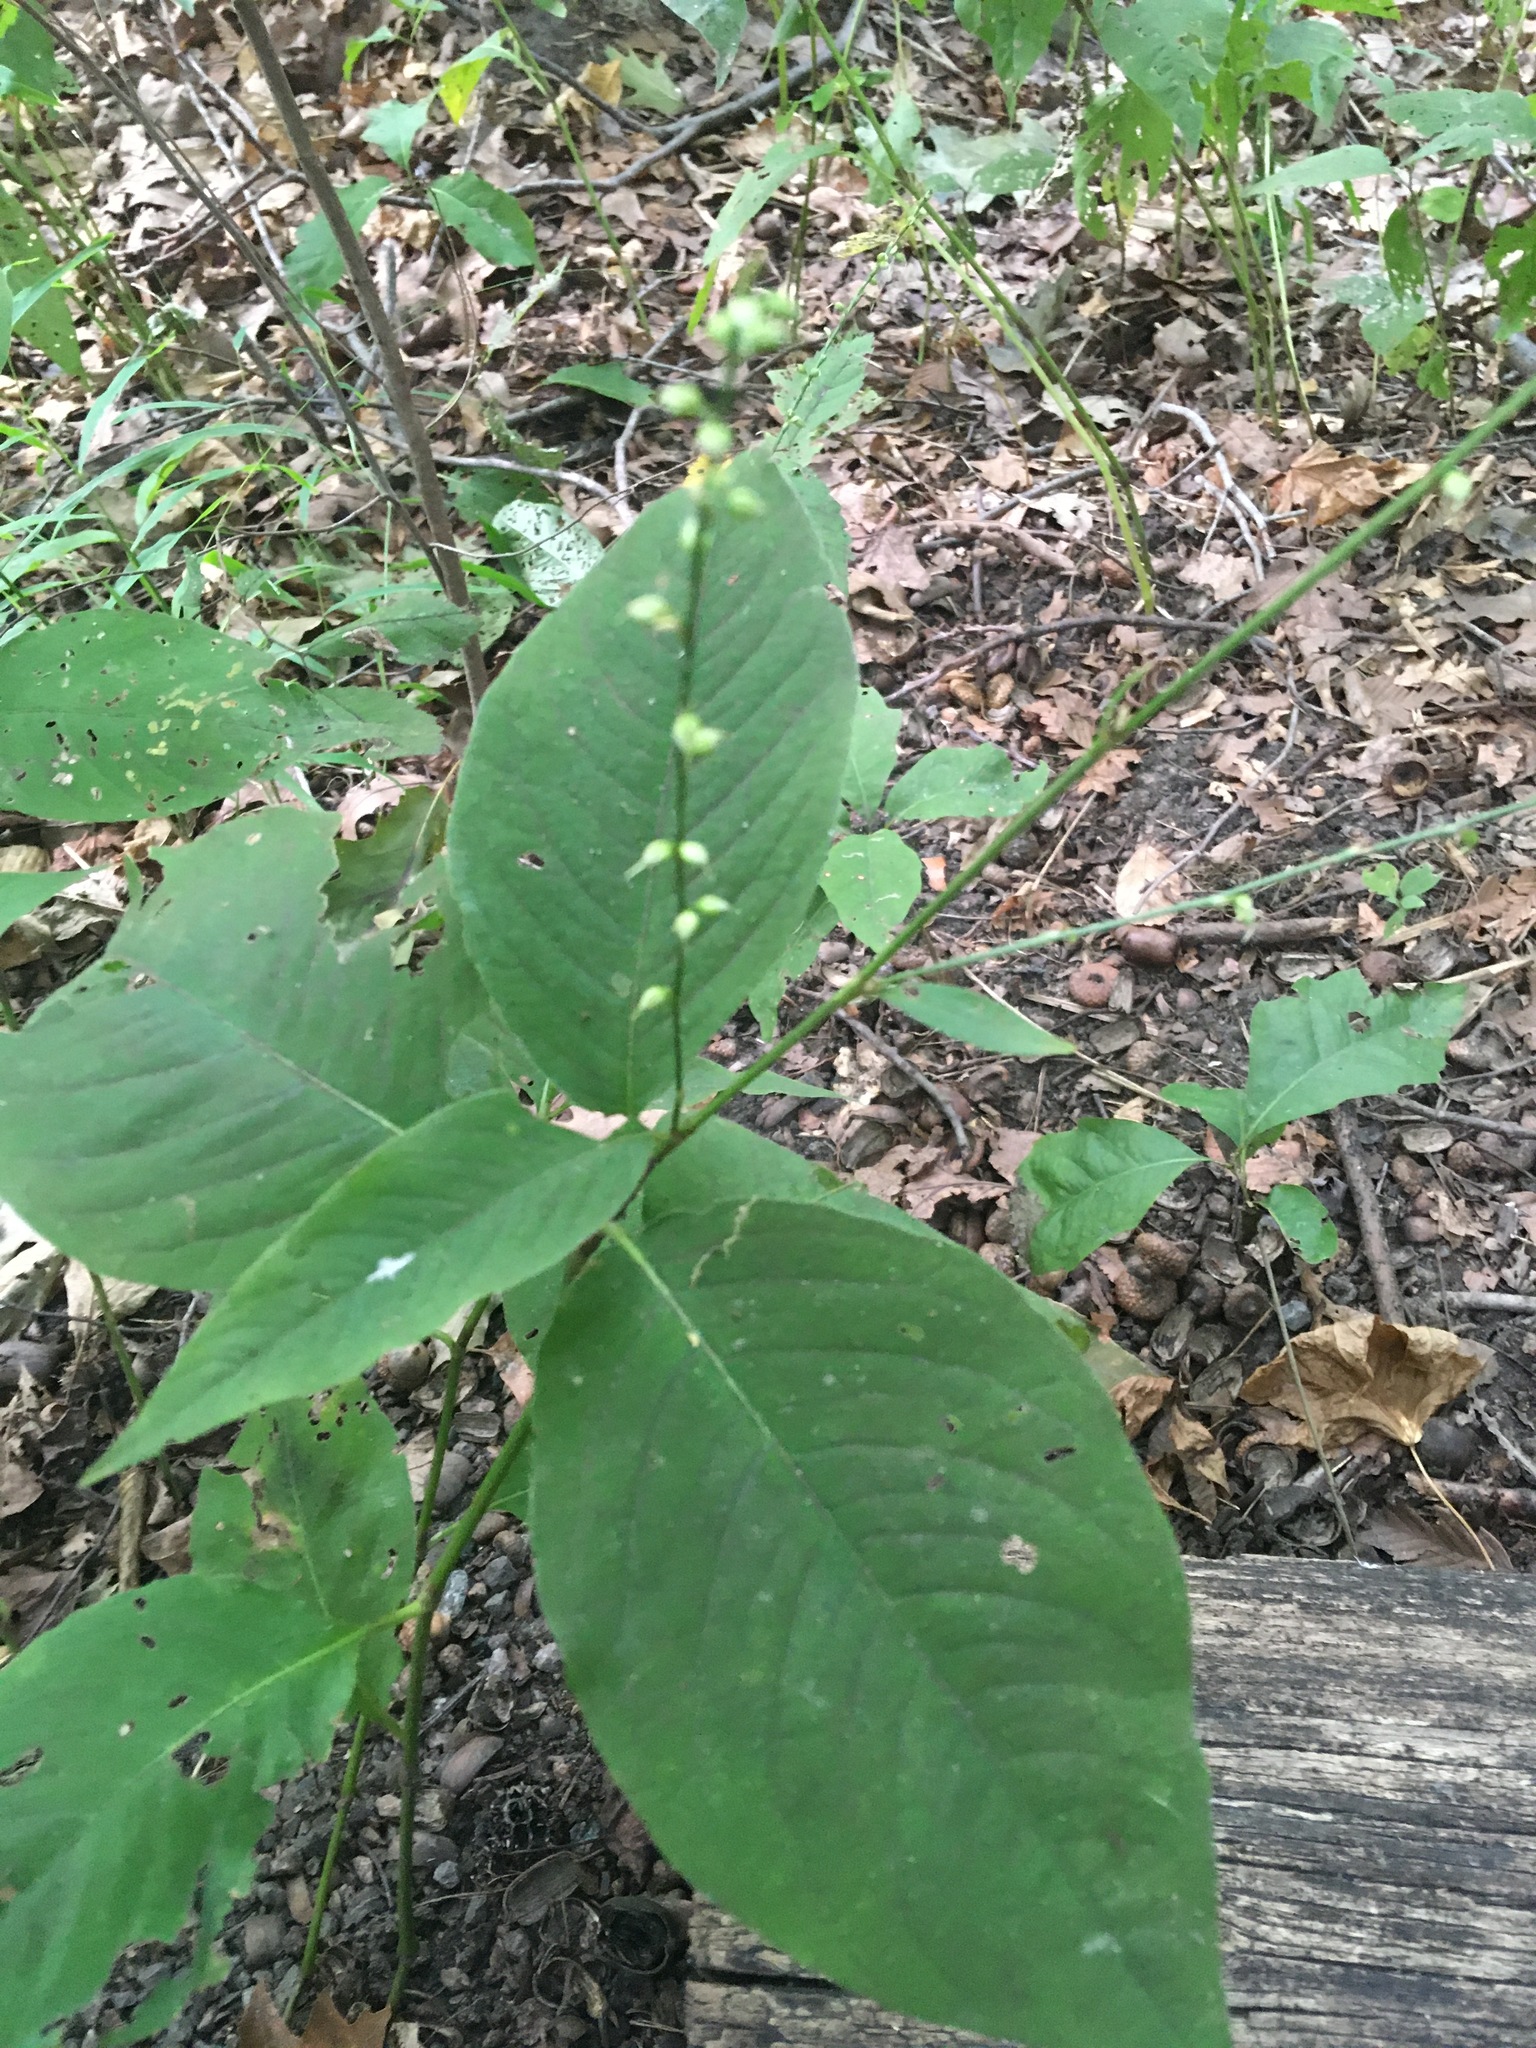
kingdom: Plantae
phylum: Tracheophyta
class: Magnoliopsida
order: Caryophyllales
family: Polygonaceae
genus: Persicaria
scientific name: Persicaria virginiana
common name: Jumpseed
